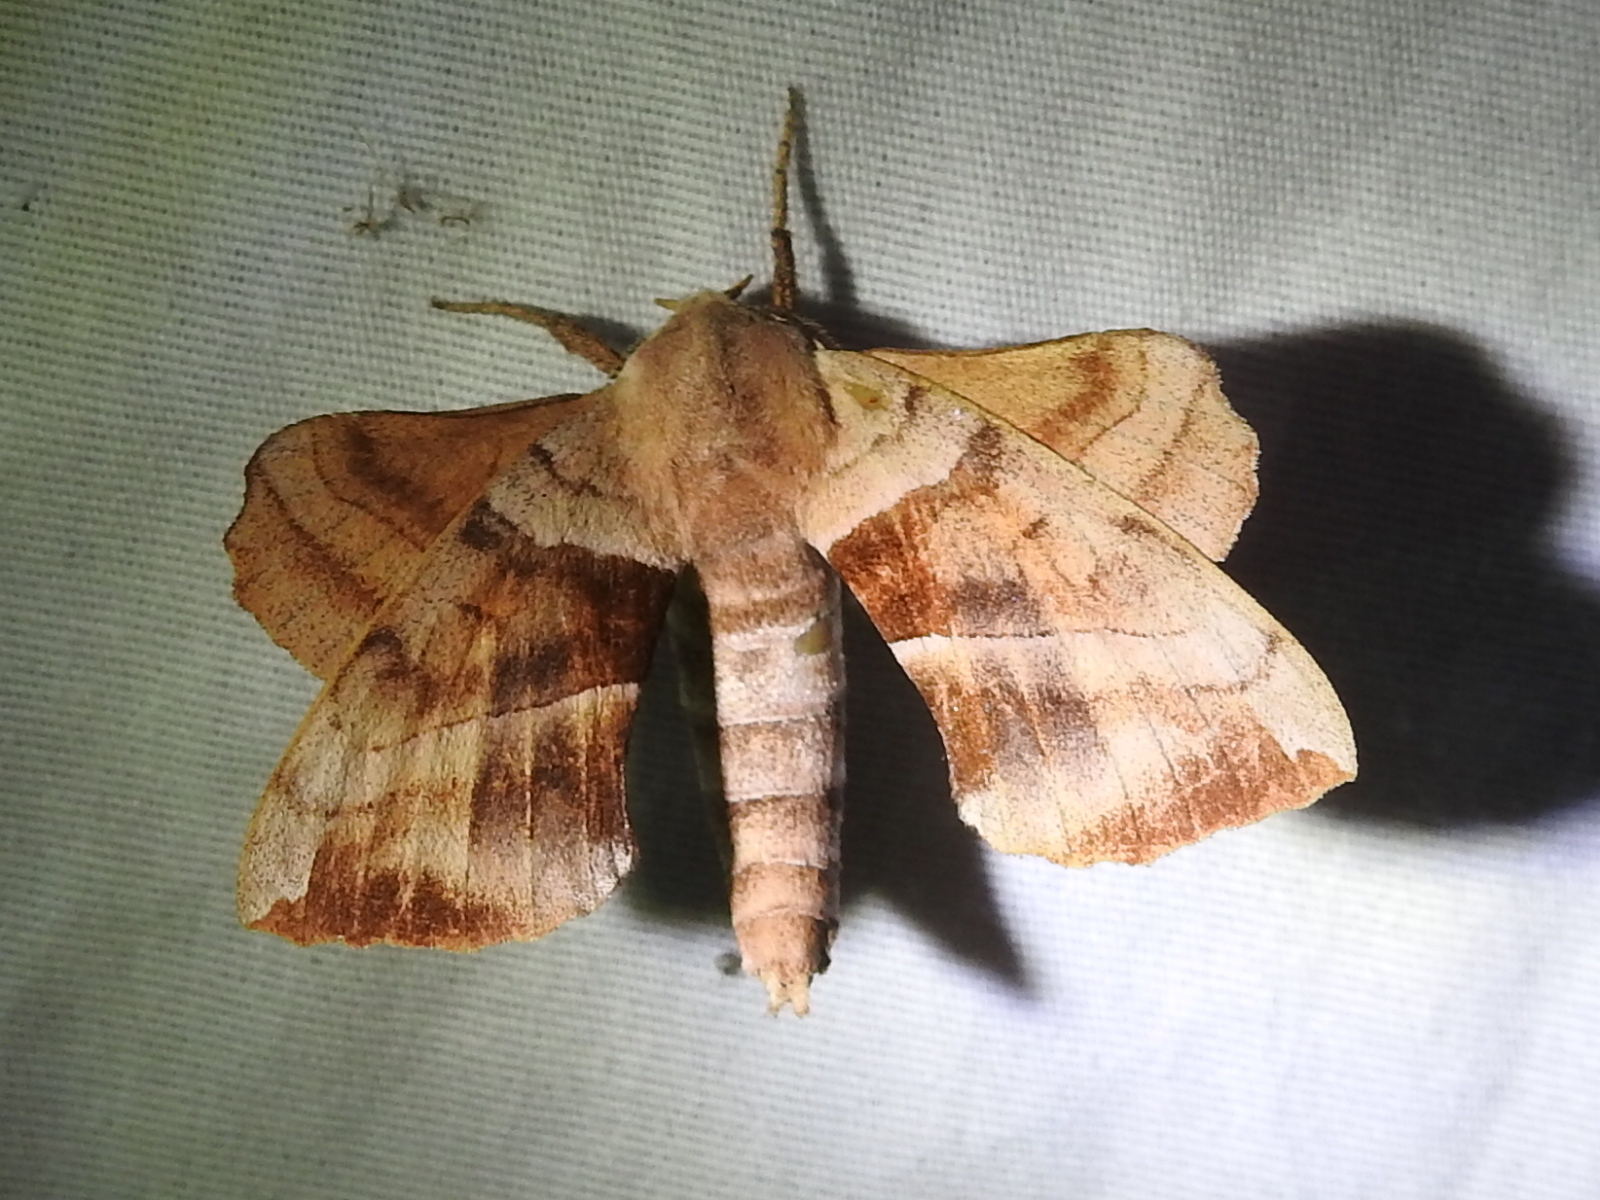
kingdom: Animalia
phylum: Arthropoda
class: Insecta
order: Lepidoptera
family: Sphingidae
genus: Amorpha
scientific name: Amorpha juglandis
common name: Walnut sphinx
